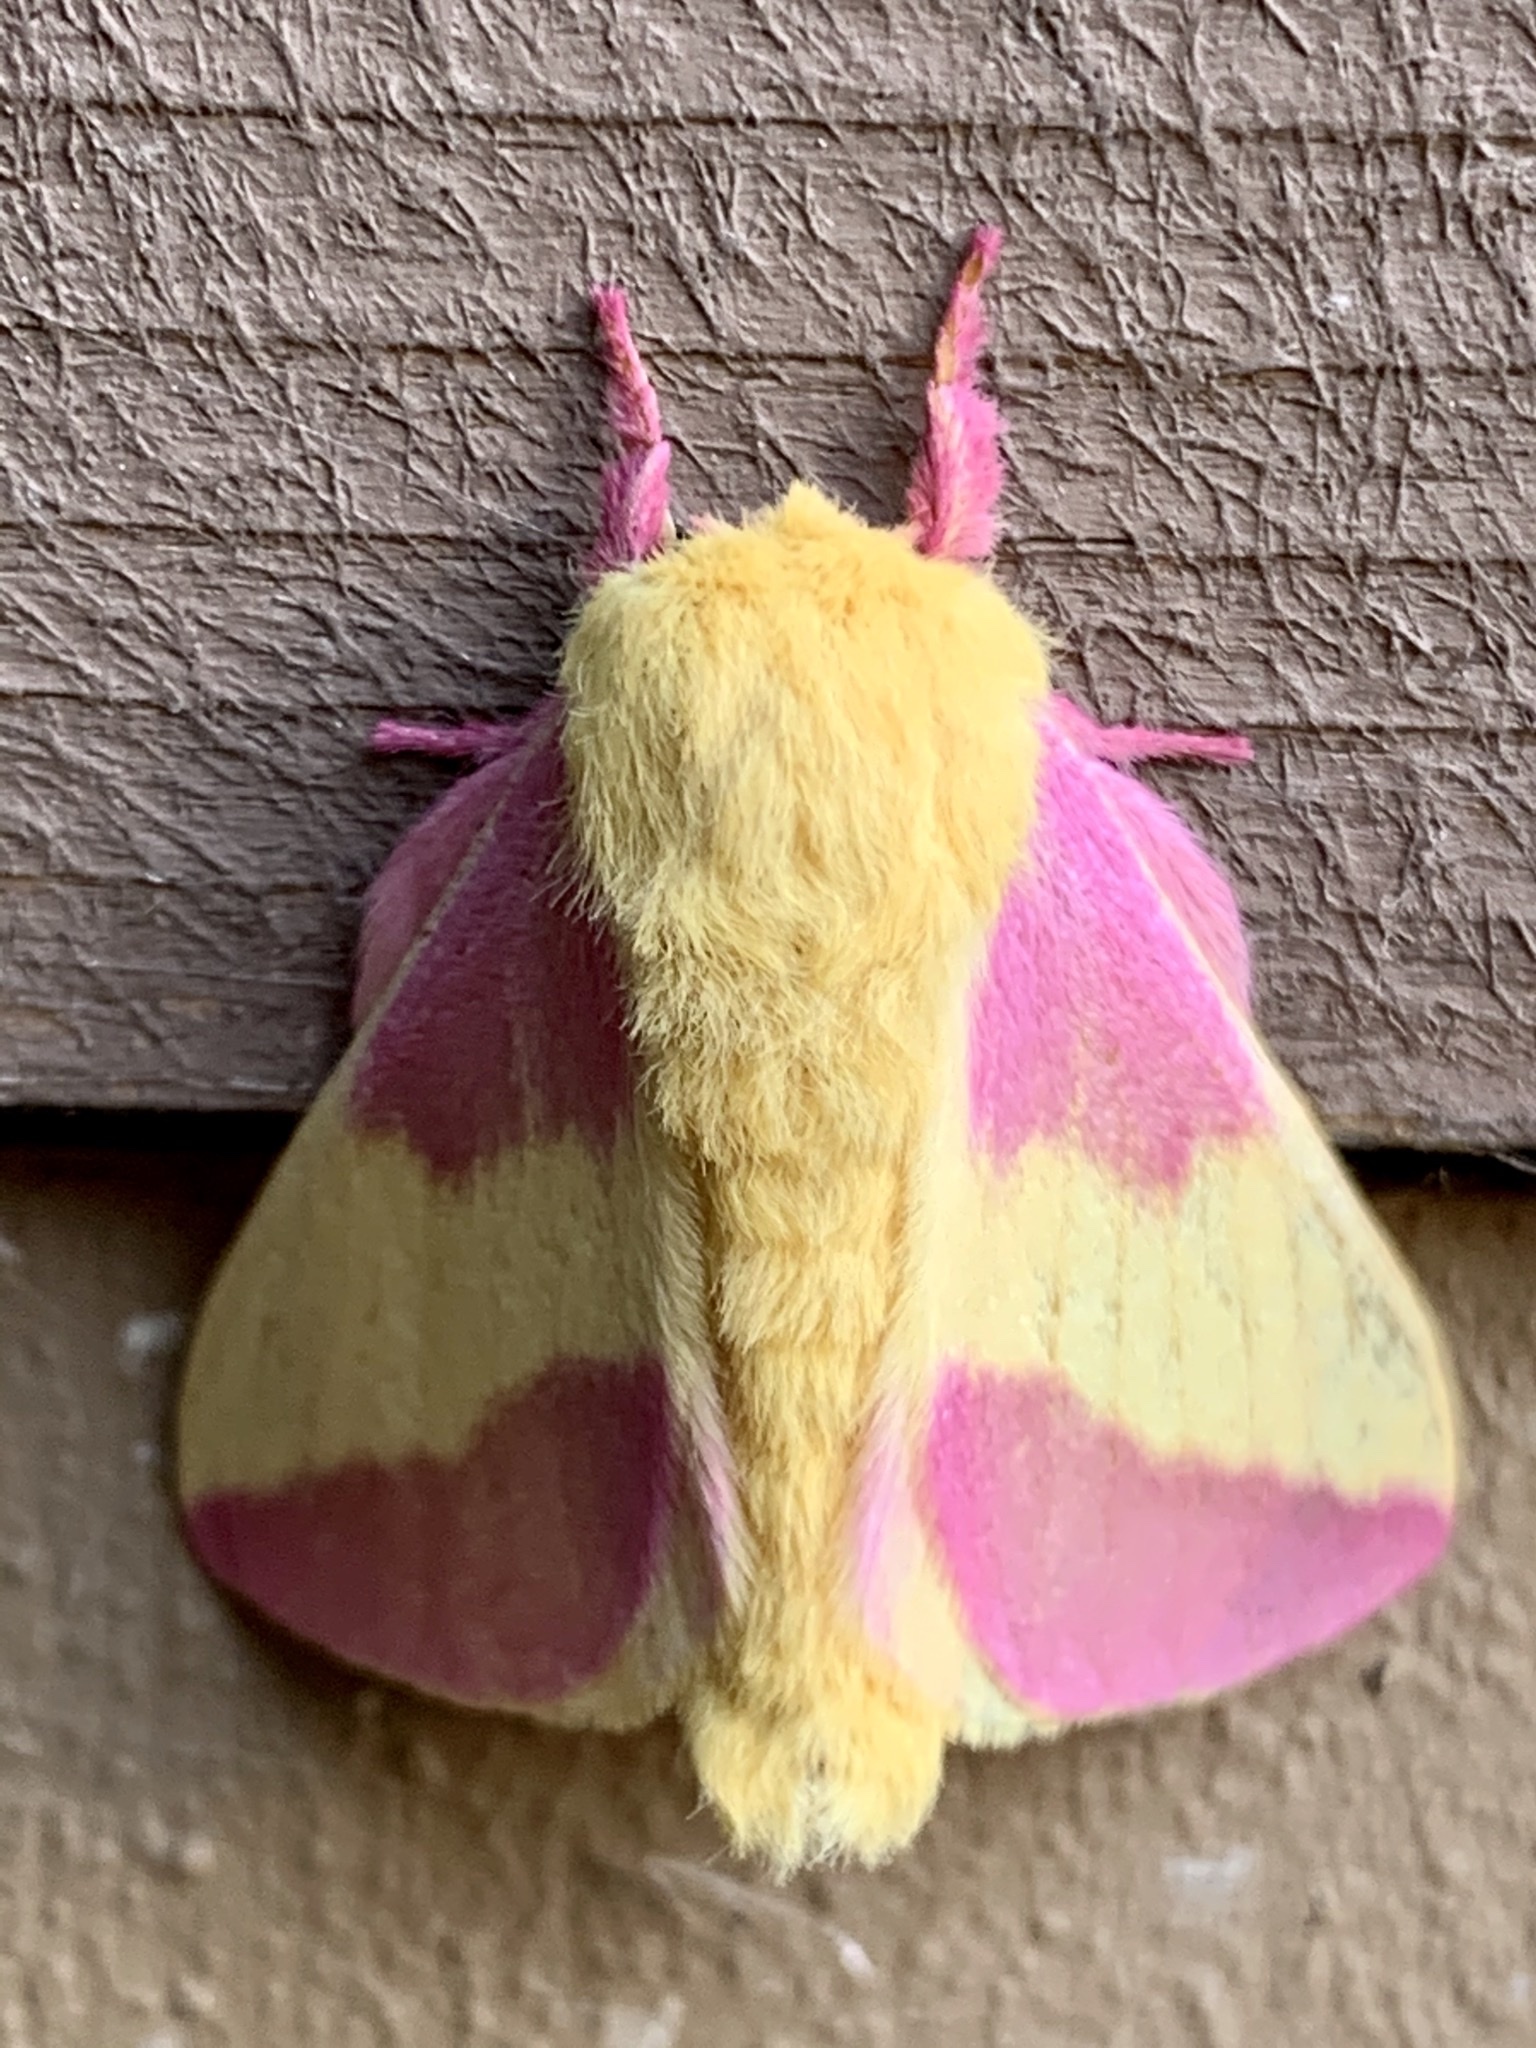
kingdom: Animalia
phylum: Arthropoda
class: Insecta
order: Lepidoptera
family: Saturniidae
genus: Dryocampa
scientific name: Dryocampa rubicunda
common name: Rosy maple moth
